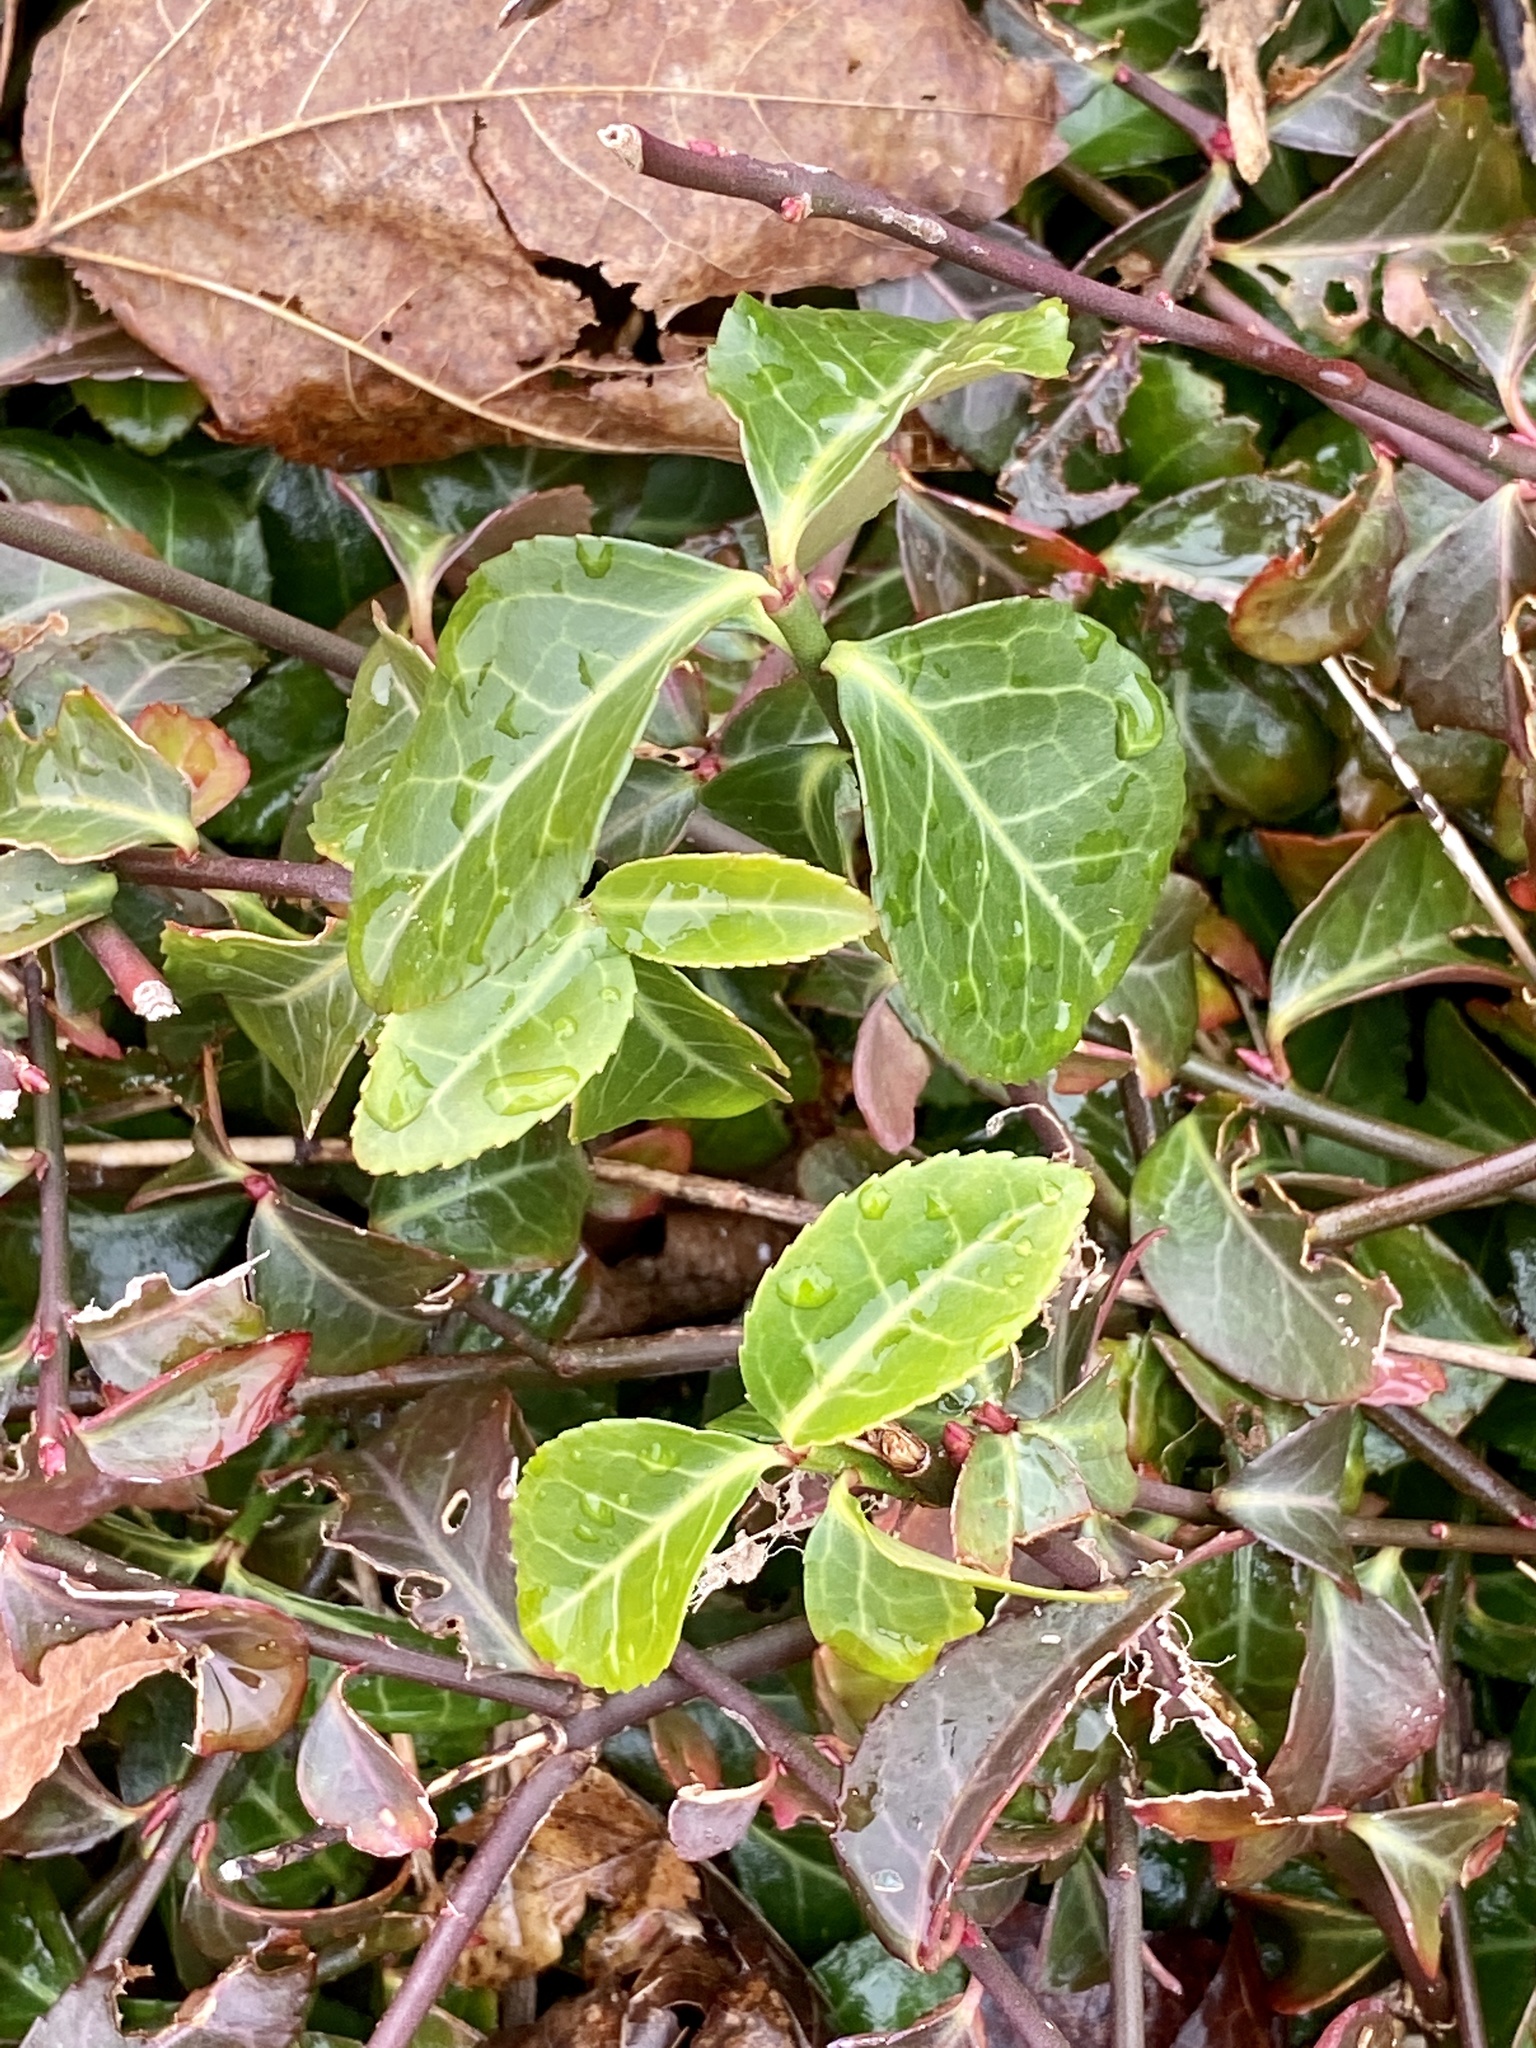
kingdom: Plantae
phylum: Tracheophyta
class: Magnoliopsida
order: Celastrales
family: Celastraceae
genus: Euonymus
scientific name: Euonymus fortunei
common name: Climbing euonymus
